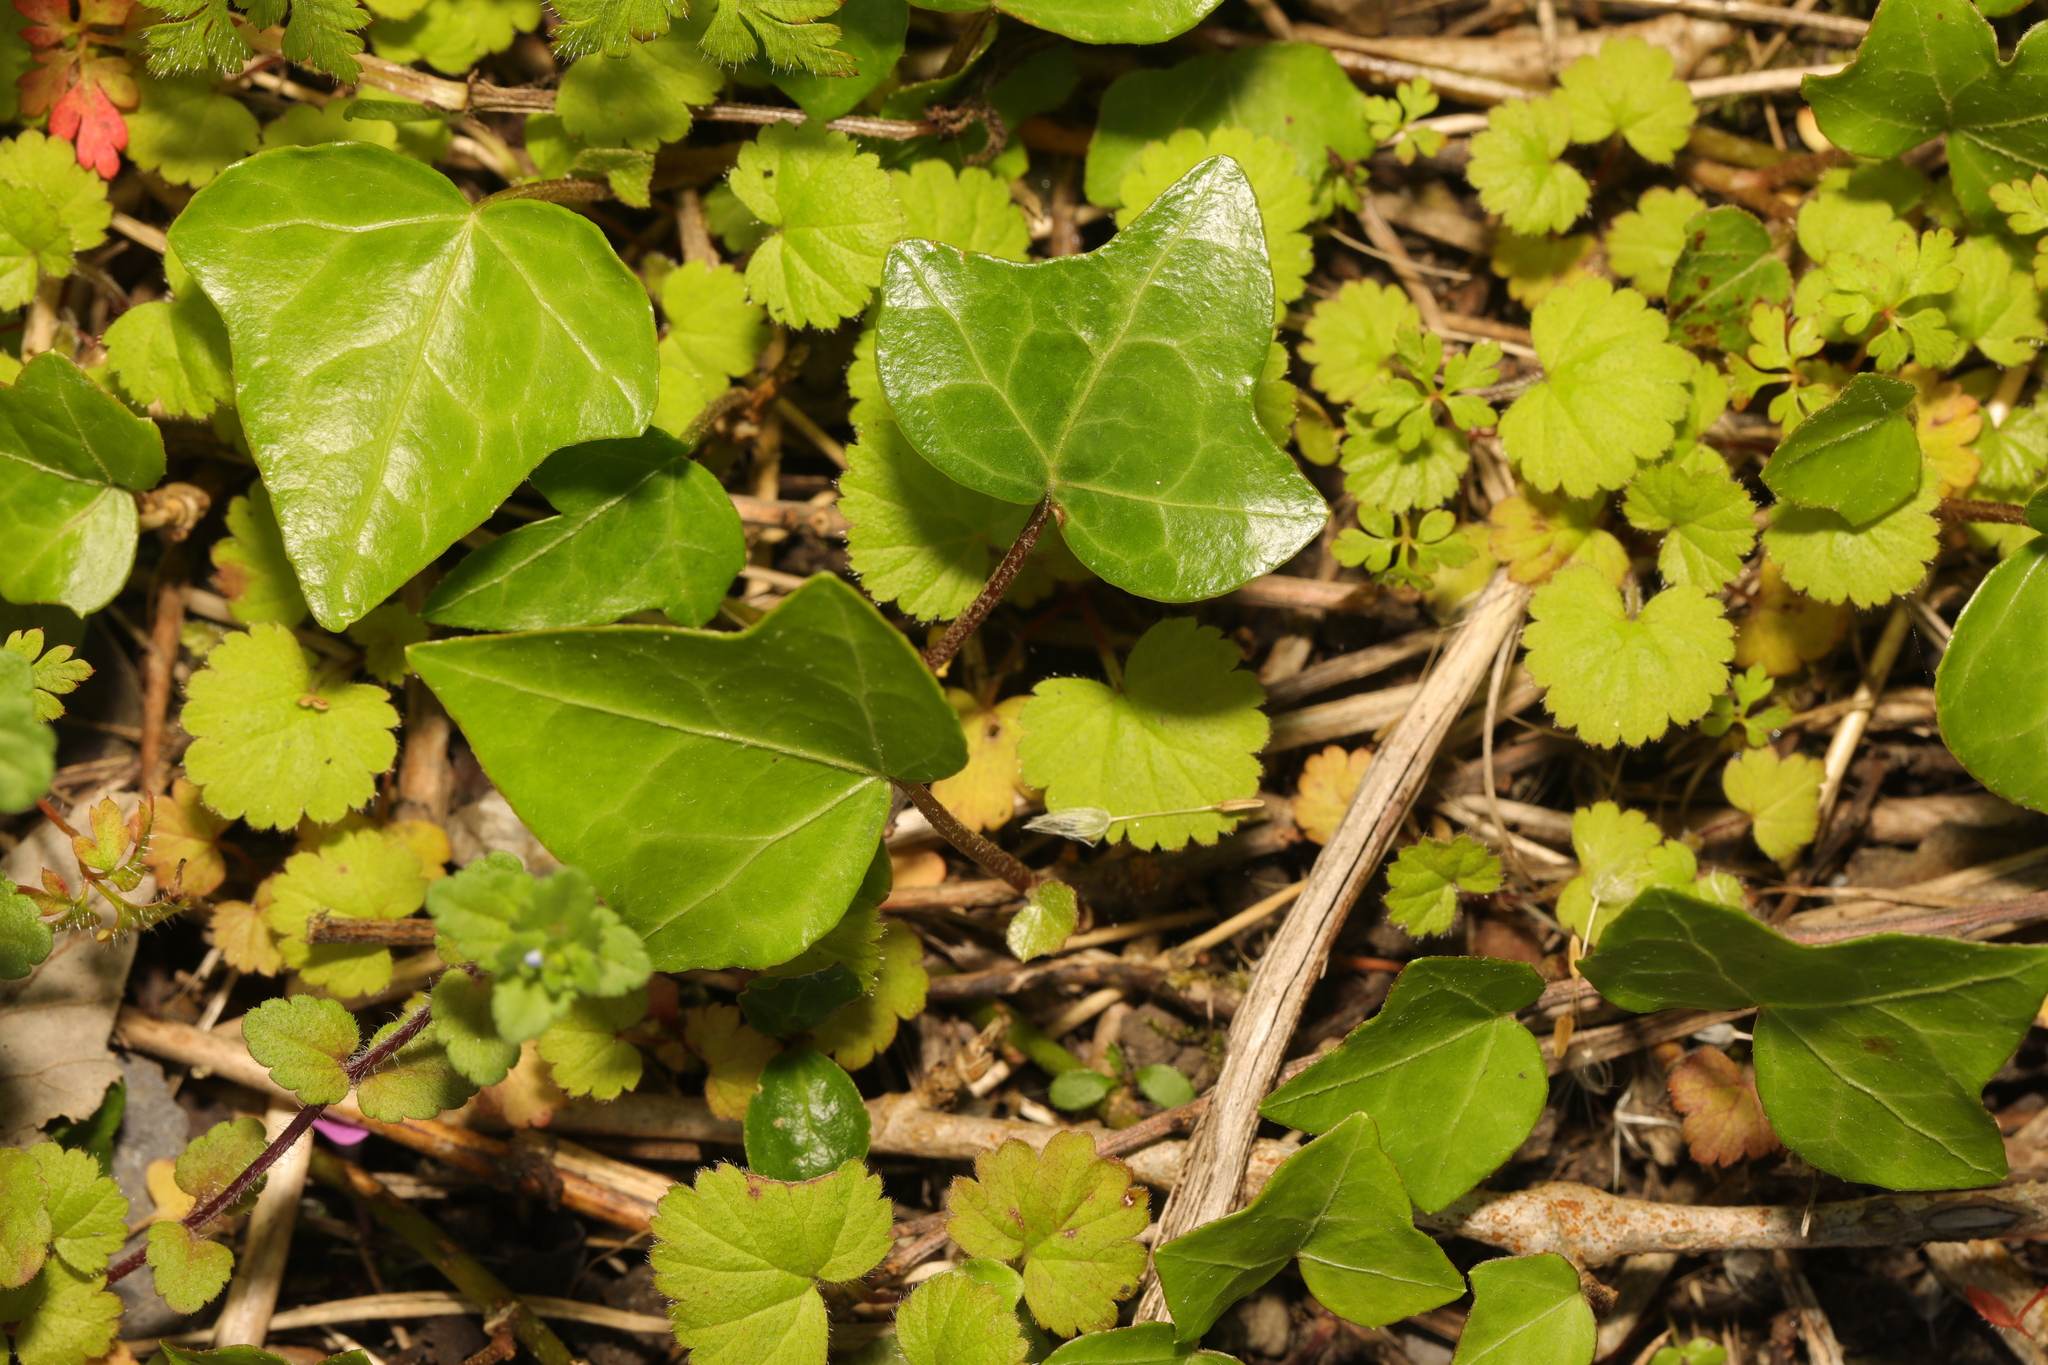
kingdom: Plantae
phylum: Tracheophyta
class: Magnoliopsida
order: Apiales
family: Araliaceae
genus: Hedera
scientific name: Hedera helix
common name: Ivy
